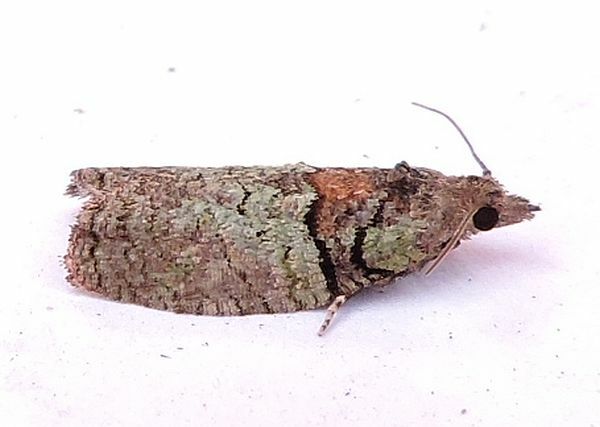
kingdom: Animalia
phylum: Arthropoda
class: Insecta
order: Lepidoptera
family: Tortricidae
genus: Epinotia
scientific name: Epinotia medioviridana
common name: Raspberry leaf-roller moth
